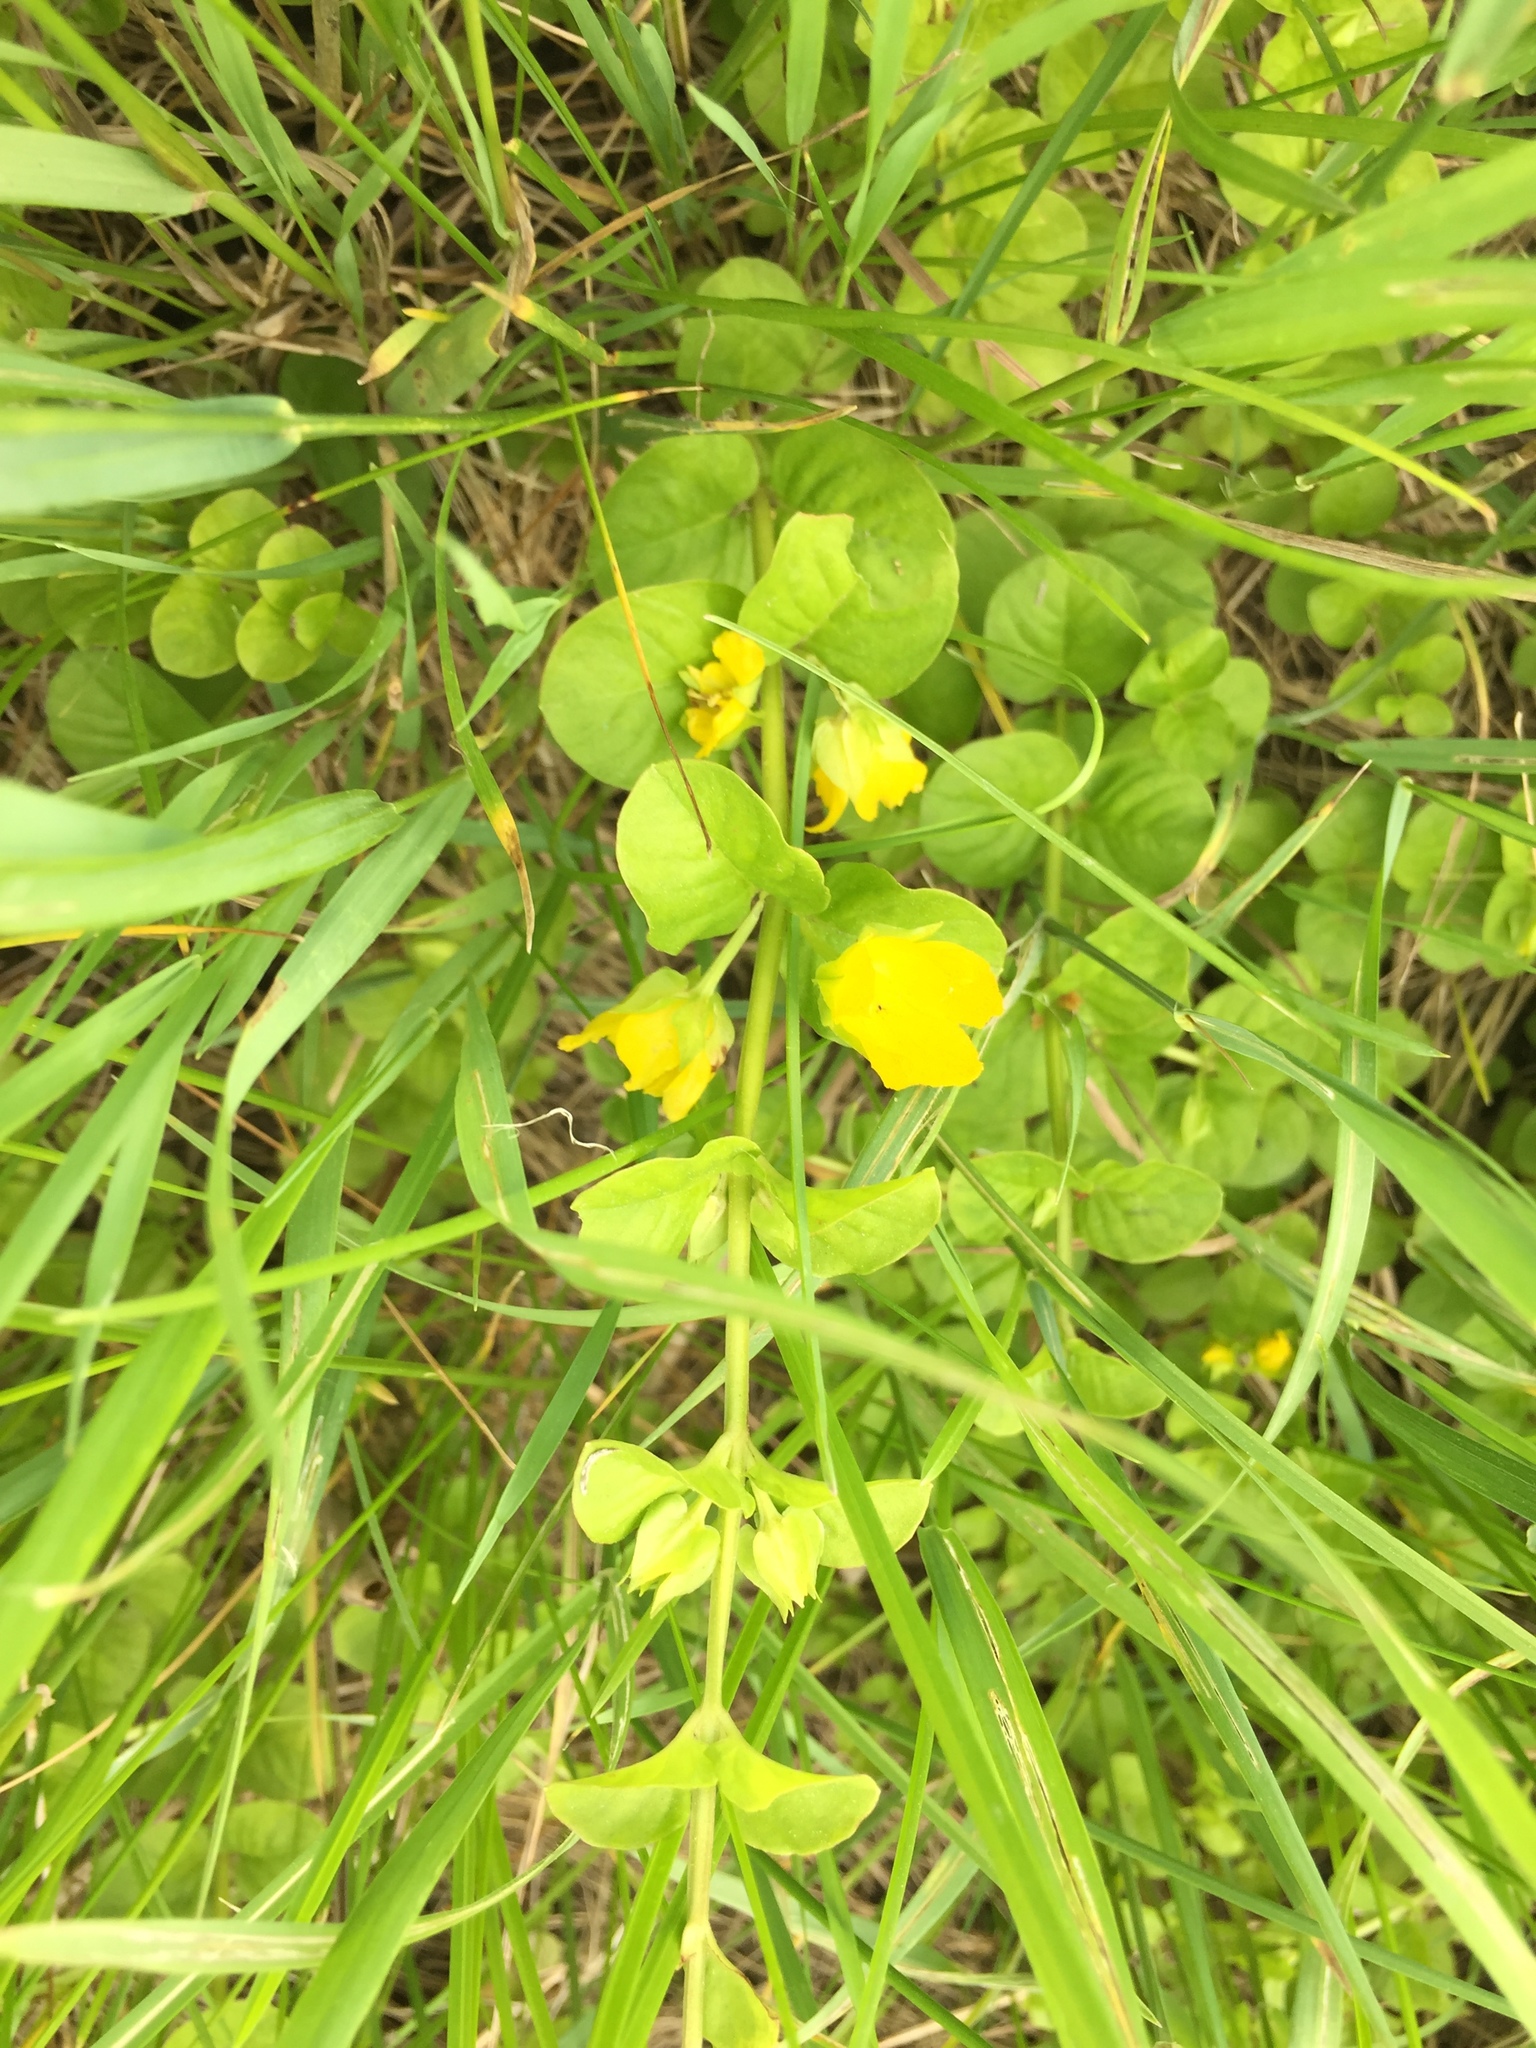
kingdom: Plantae
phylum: Tracheophyta
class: Magnoliopsida
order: Ericales
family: Primulaceae
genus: Lysimachia
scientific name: Lysimachia nummularia
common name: Moneywort
